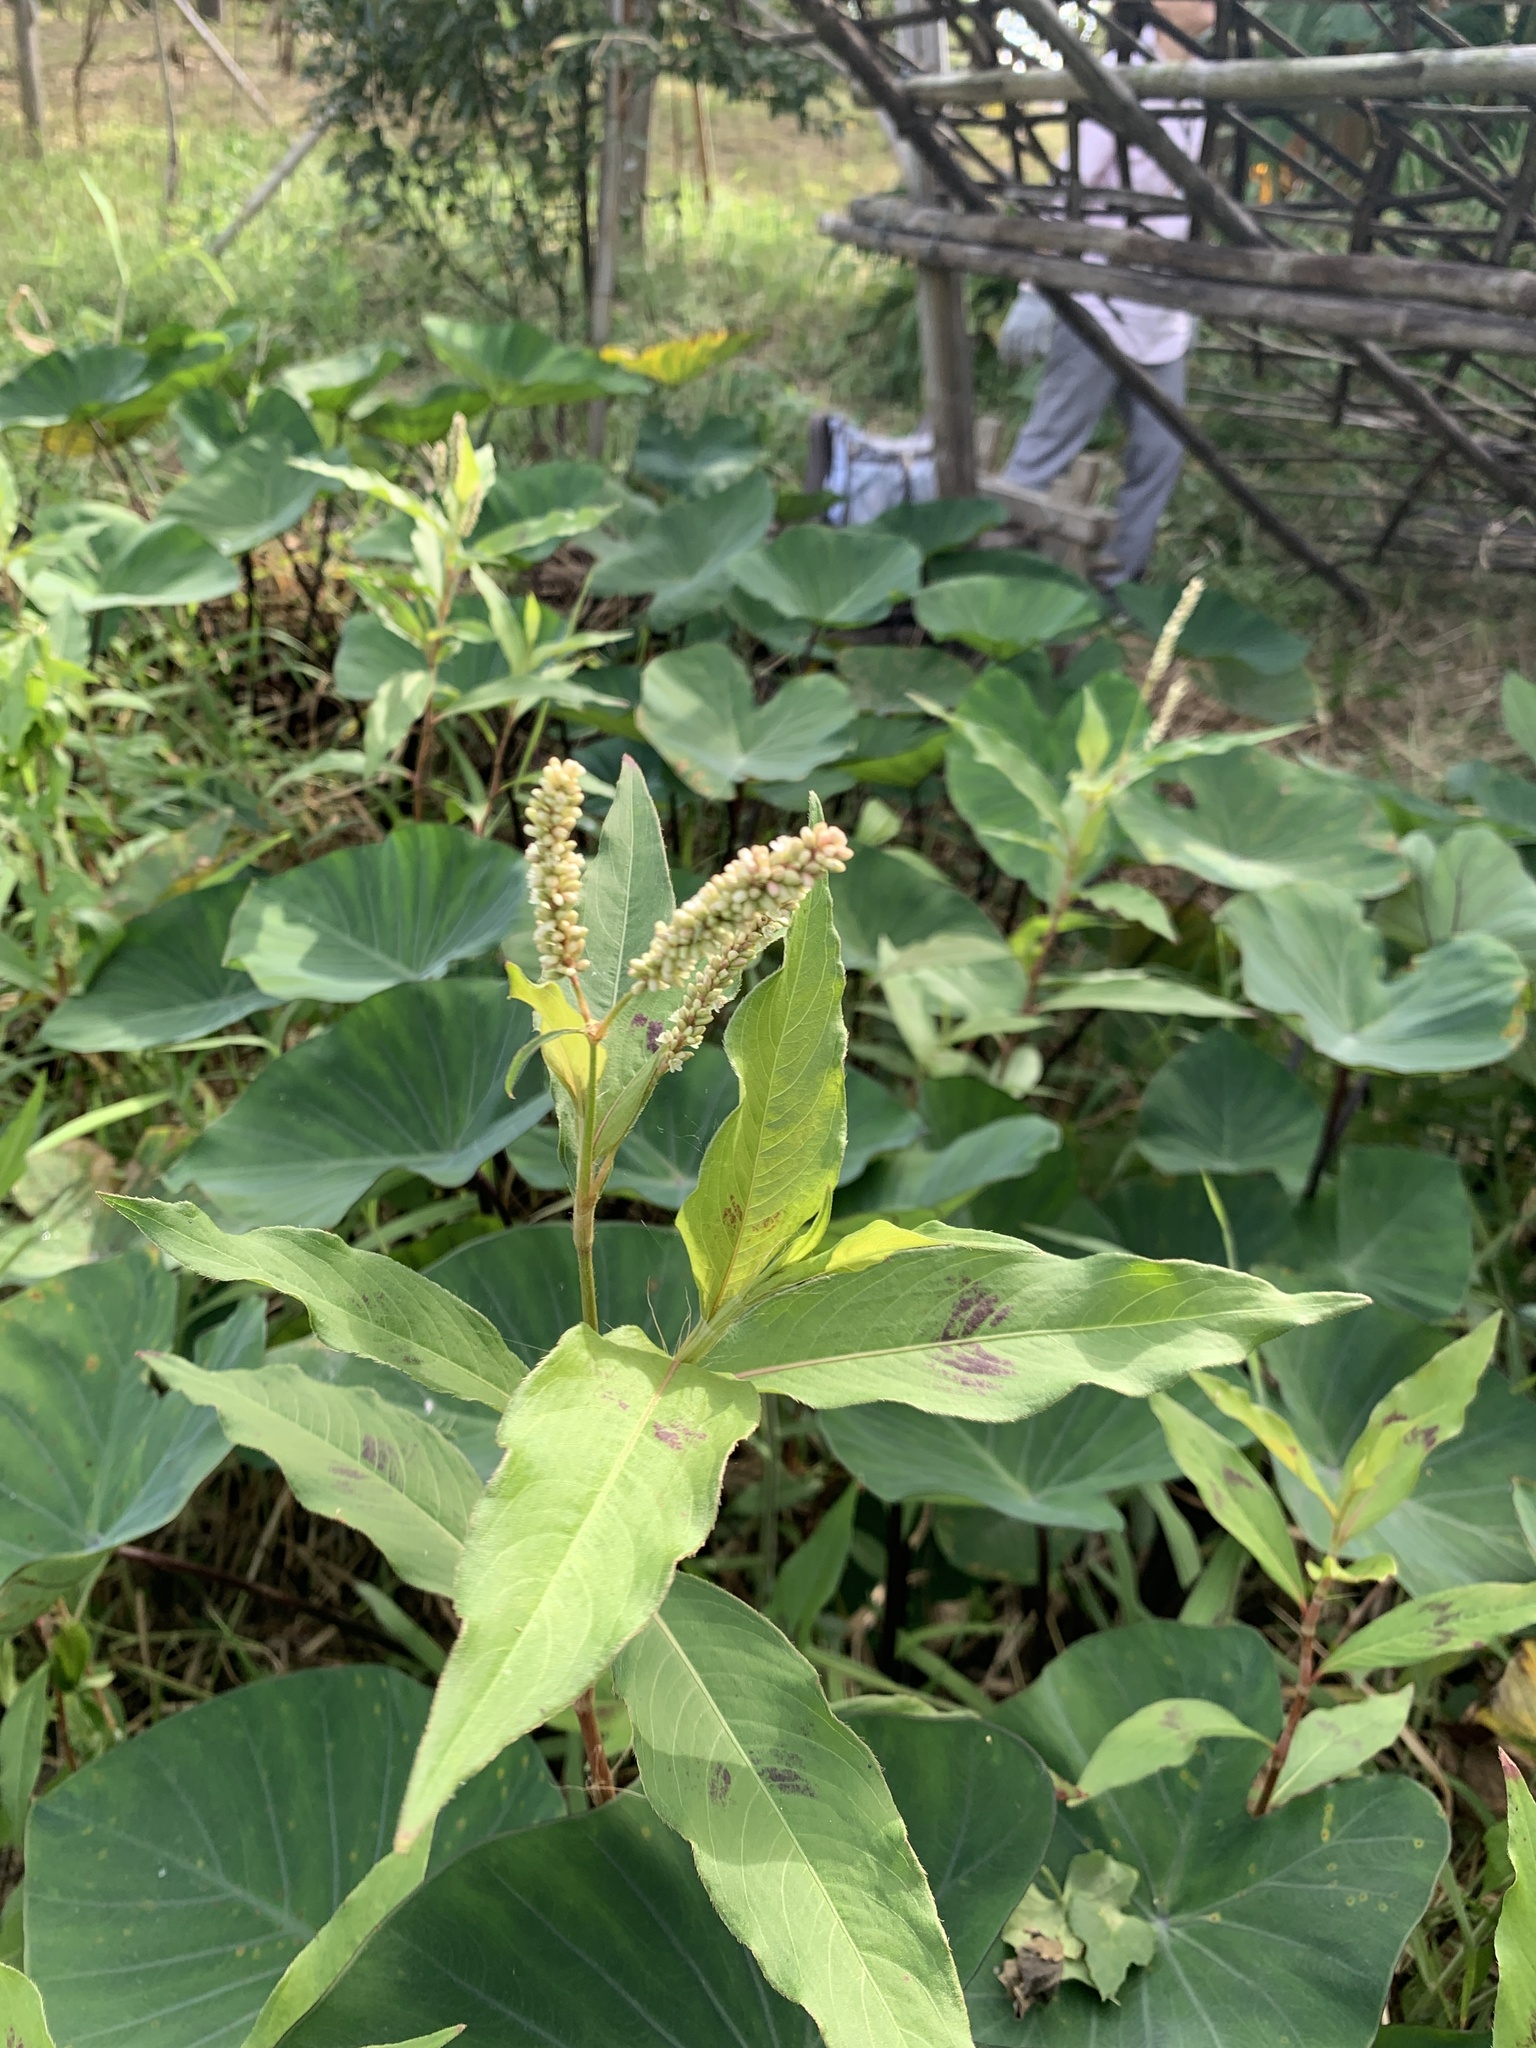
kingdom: Plantae
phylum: Tracheophyta
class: Magnoliopsida
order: Caryophyllales
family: Polygonaceae
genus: Persicaria
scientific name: Persicaria barbata
